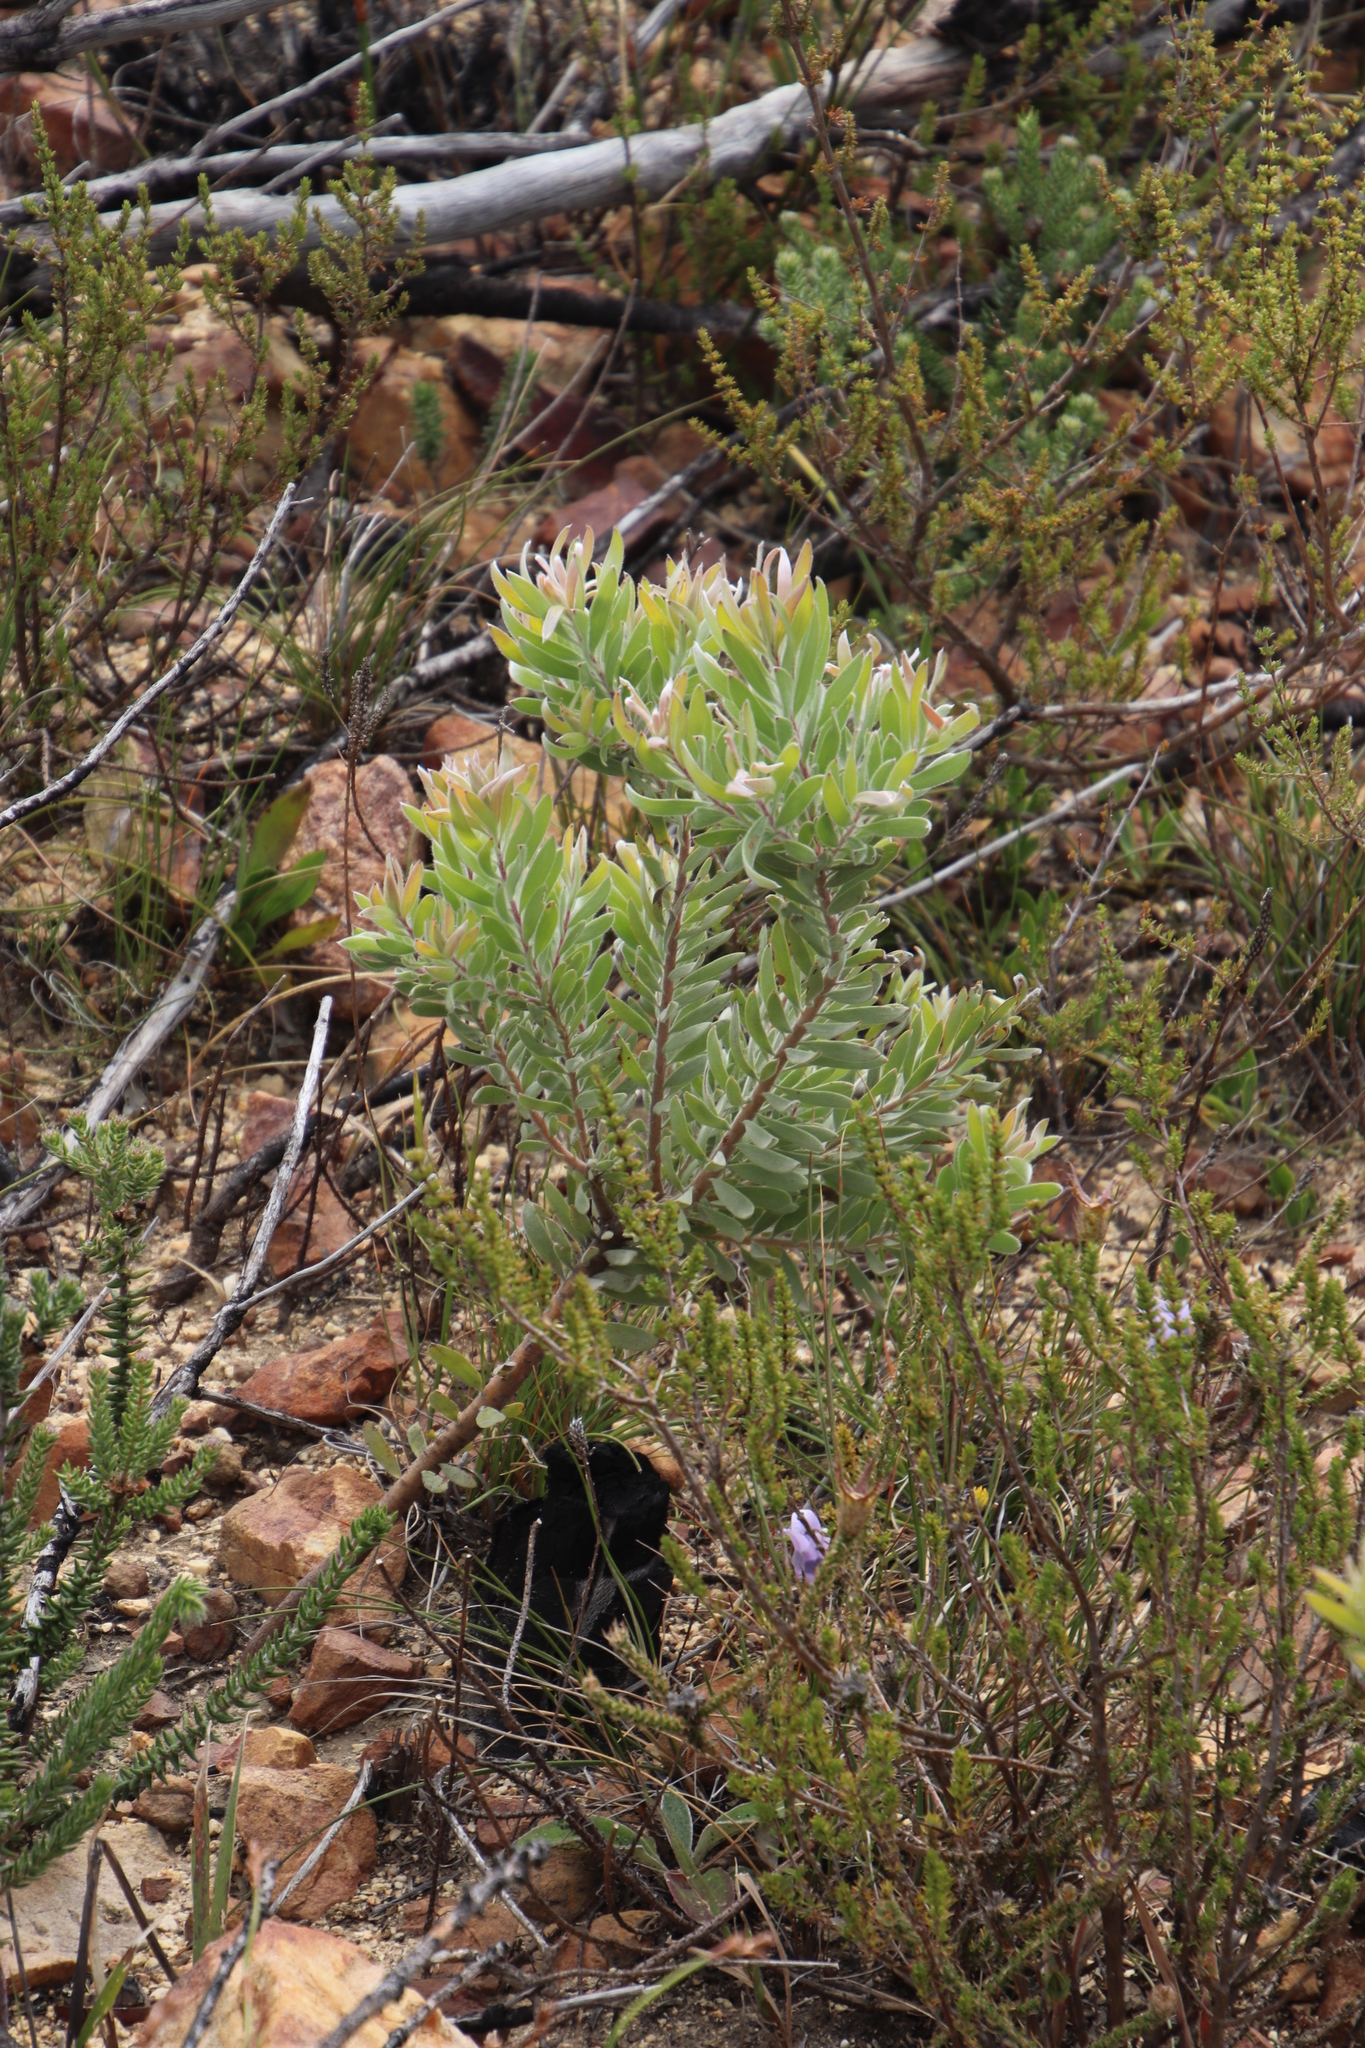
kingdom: Plantae
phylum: Tracheophyta
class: Magnoliopsida
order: Proteales
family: Proteaceae
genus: Leucadendron
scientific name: Leucadendron rubrum
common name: Spinning top
